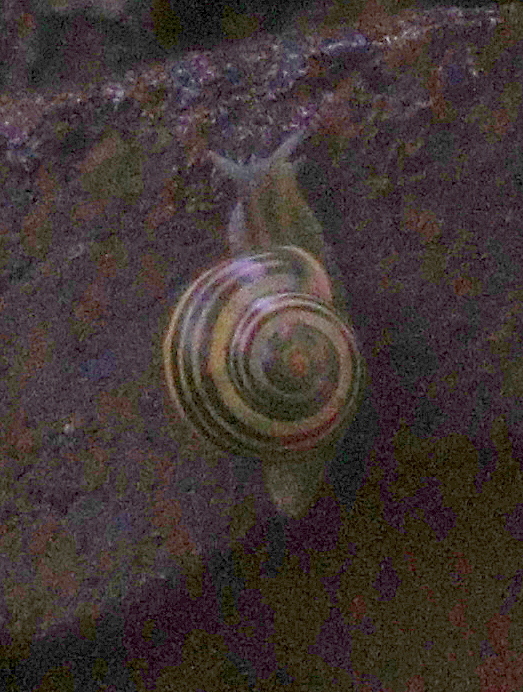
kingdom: Animalia
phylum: Mollusca
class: Gastropoda
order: Stylommatophora
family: Helicidae
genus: Cepaea
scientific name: Cepaea
